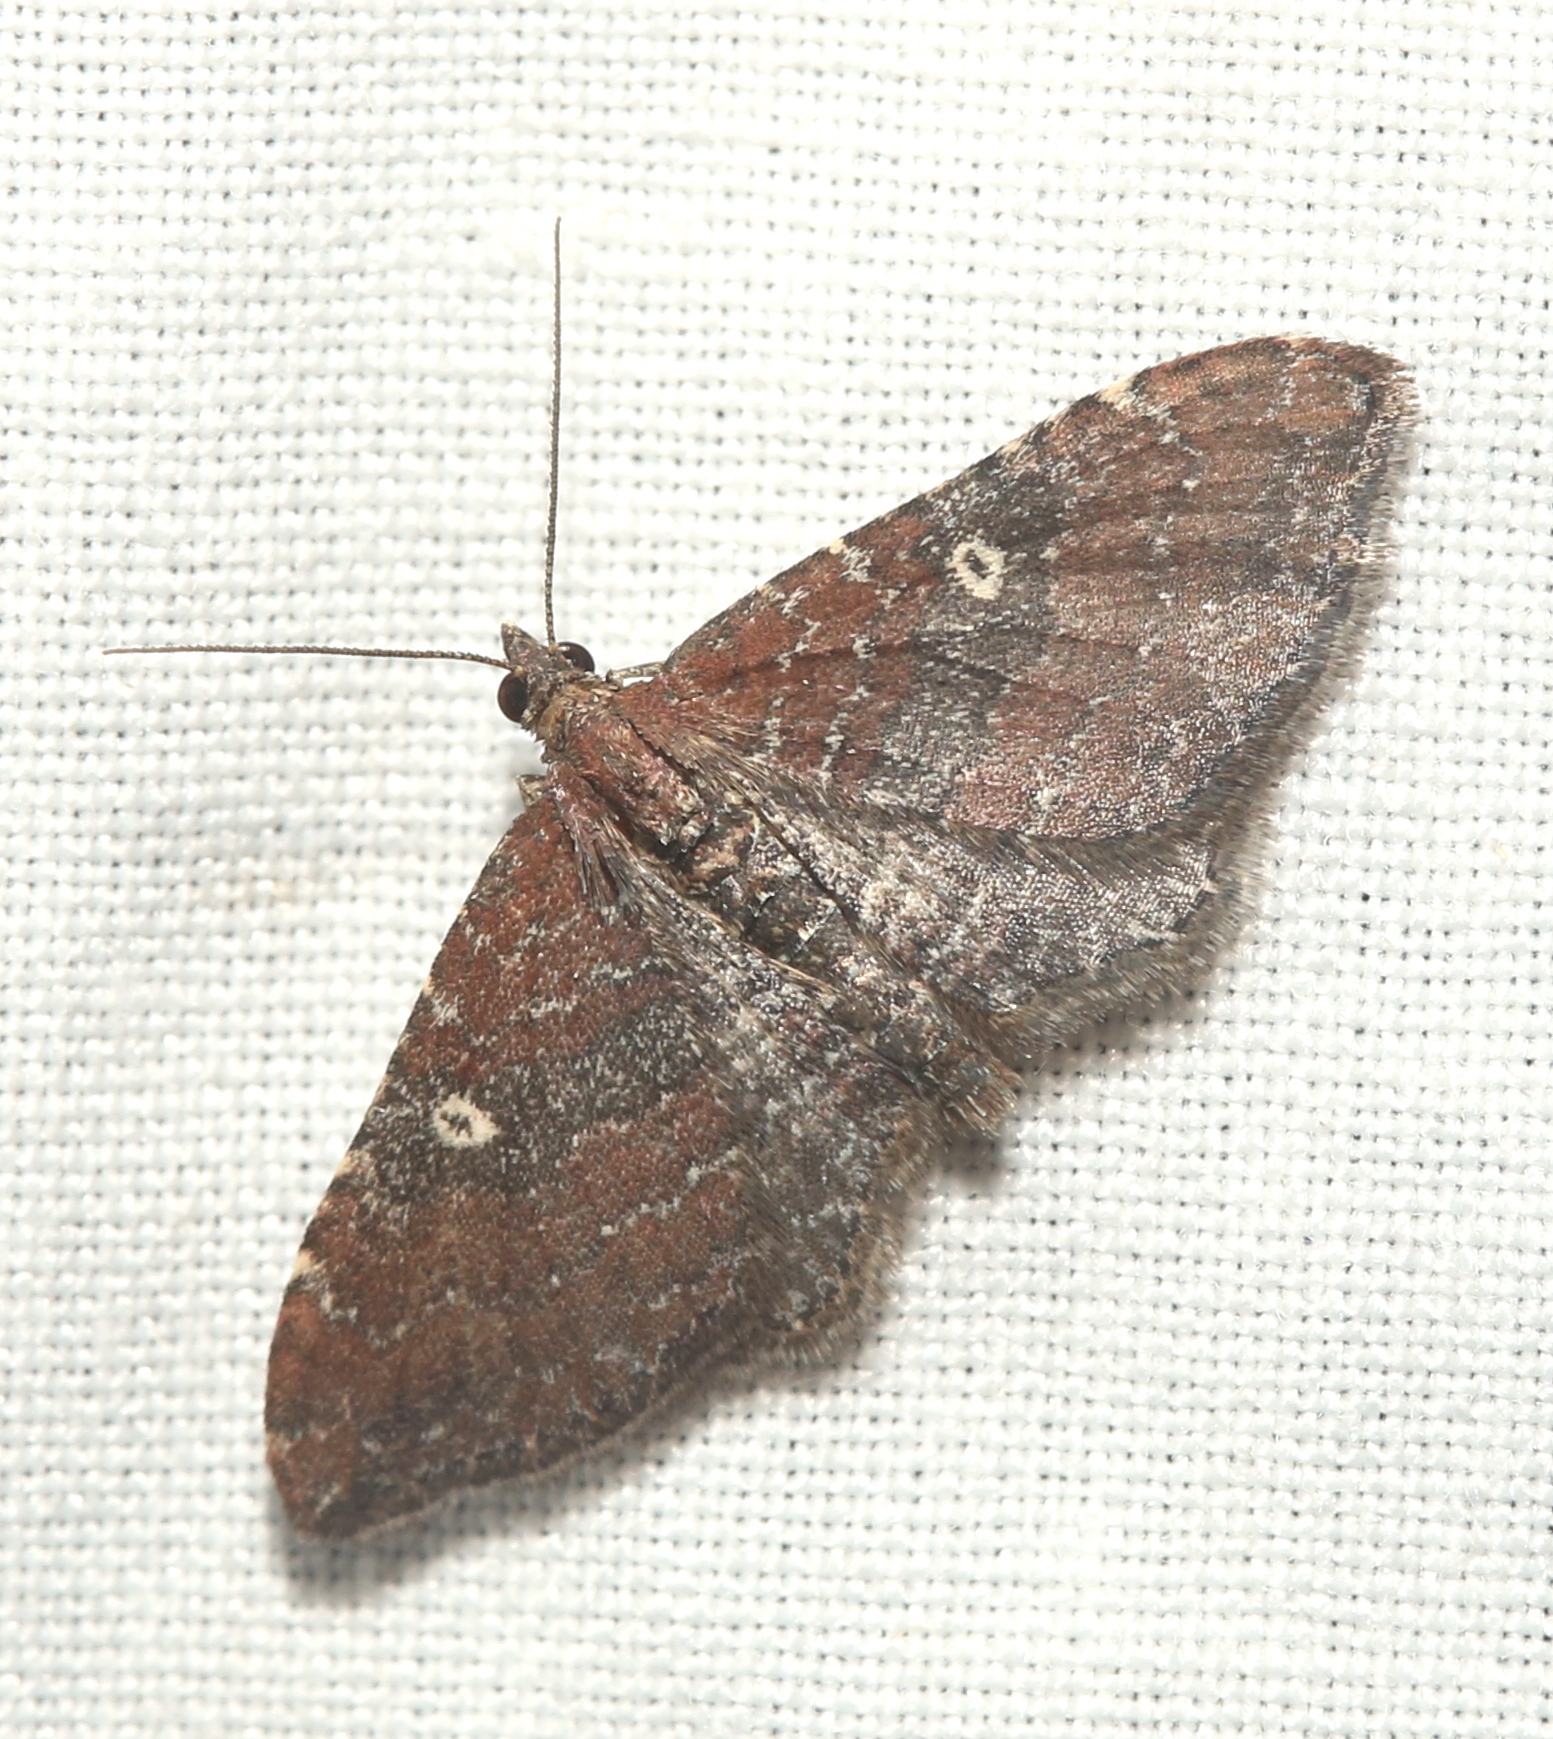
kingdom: Animalia
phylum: Arthropoda
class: Insecta
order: Lepidoptera
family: Geometridae
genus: Orthonama
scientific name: Orthonama obstipata
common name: The gem
